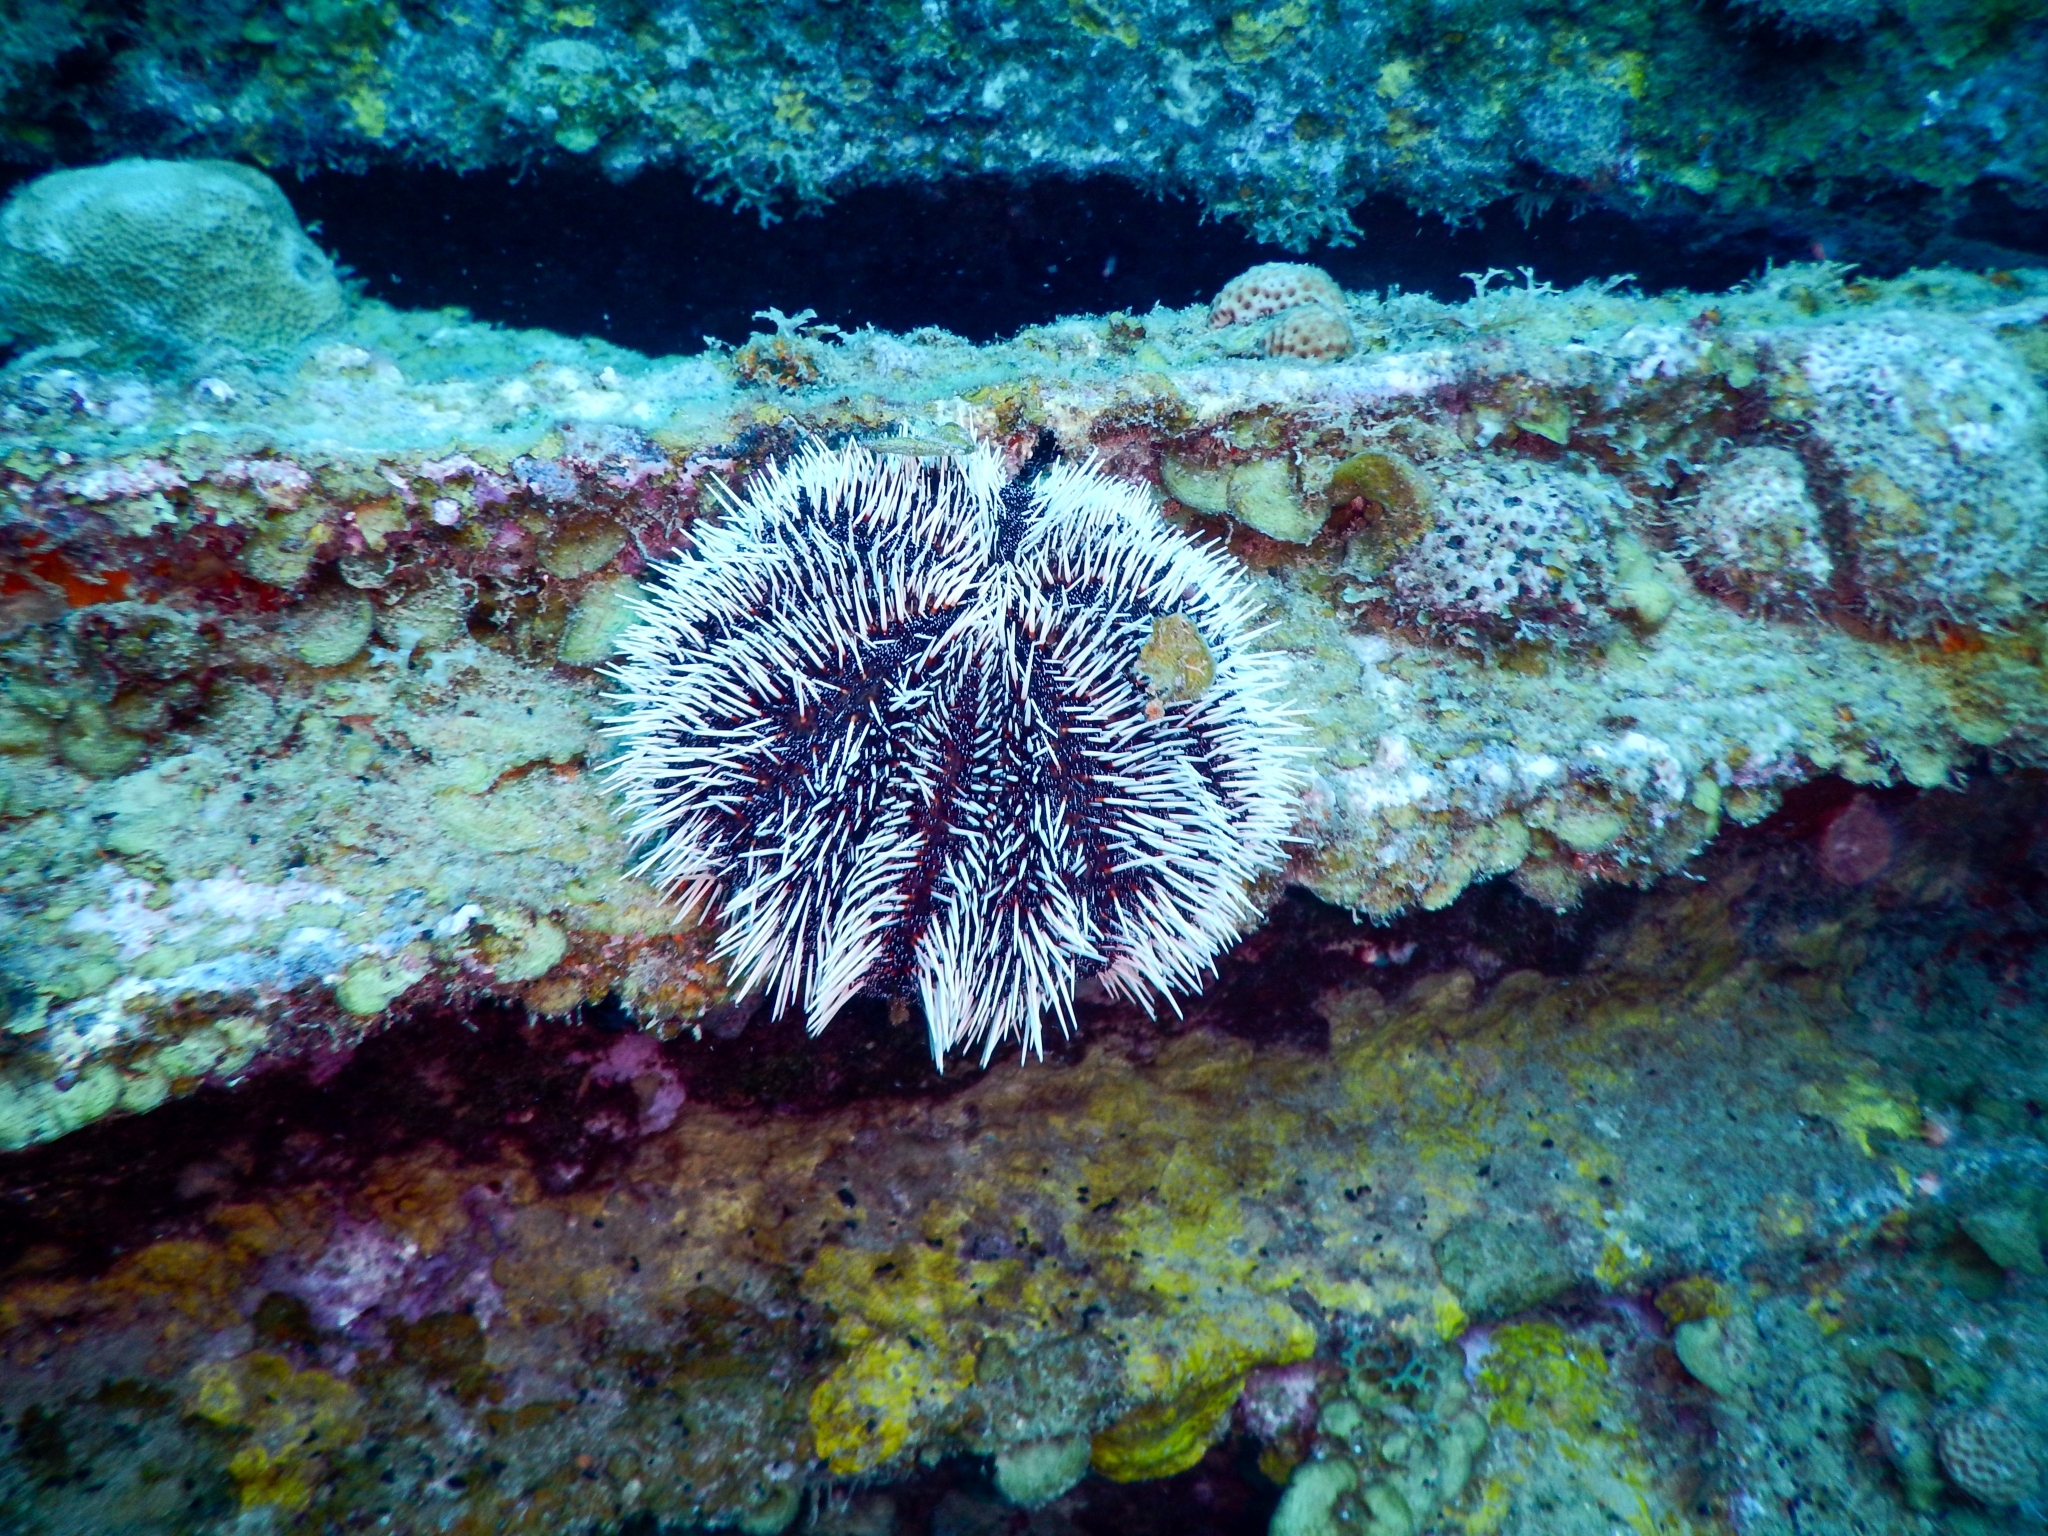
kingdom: Animalia
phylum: Echinodermata
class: Echinoidea
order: Camarodonta
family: Toxopneustidae
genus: Tripneustes
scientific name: Tripneustes ventricosus
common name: West indian sea egg
